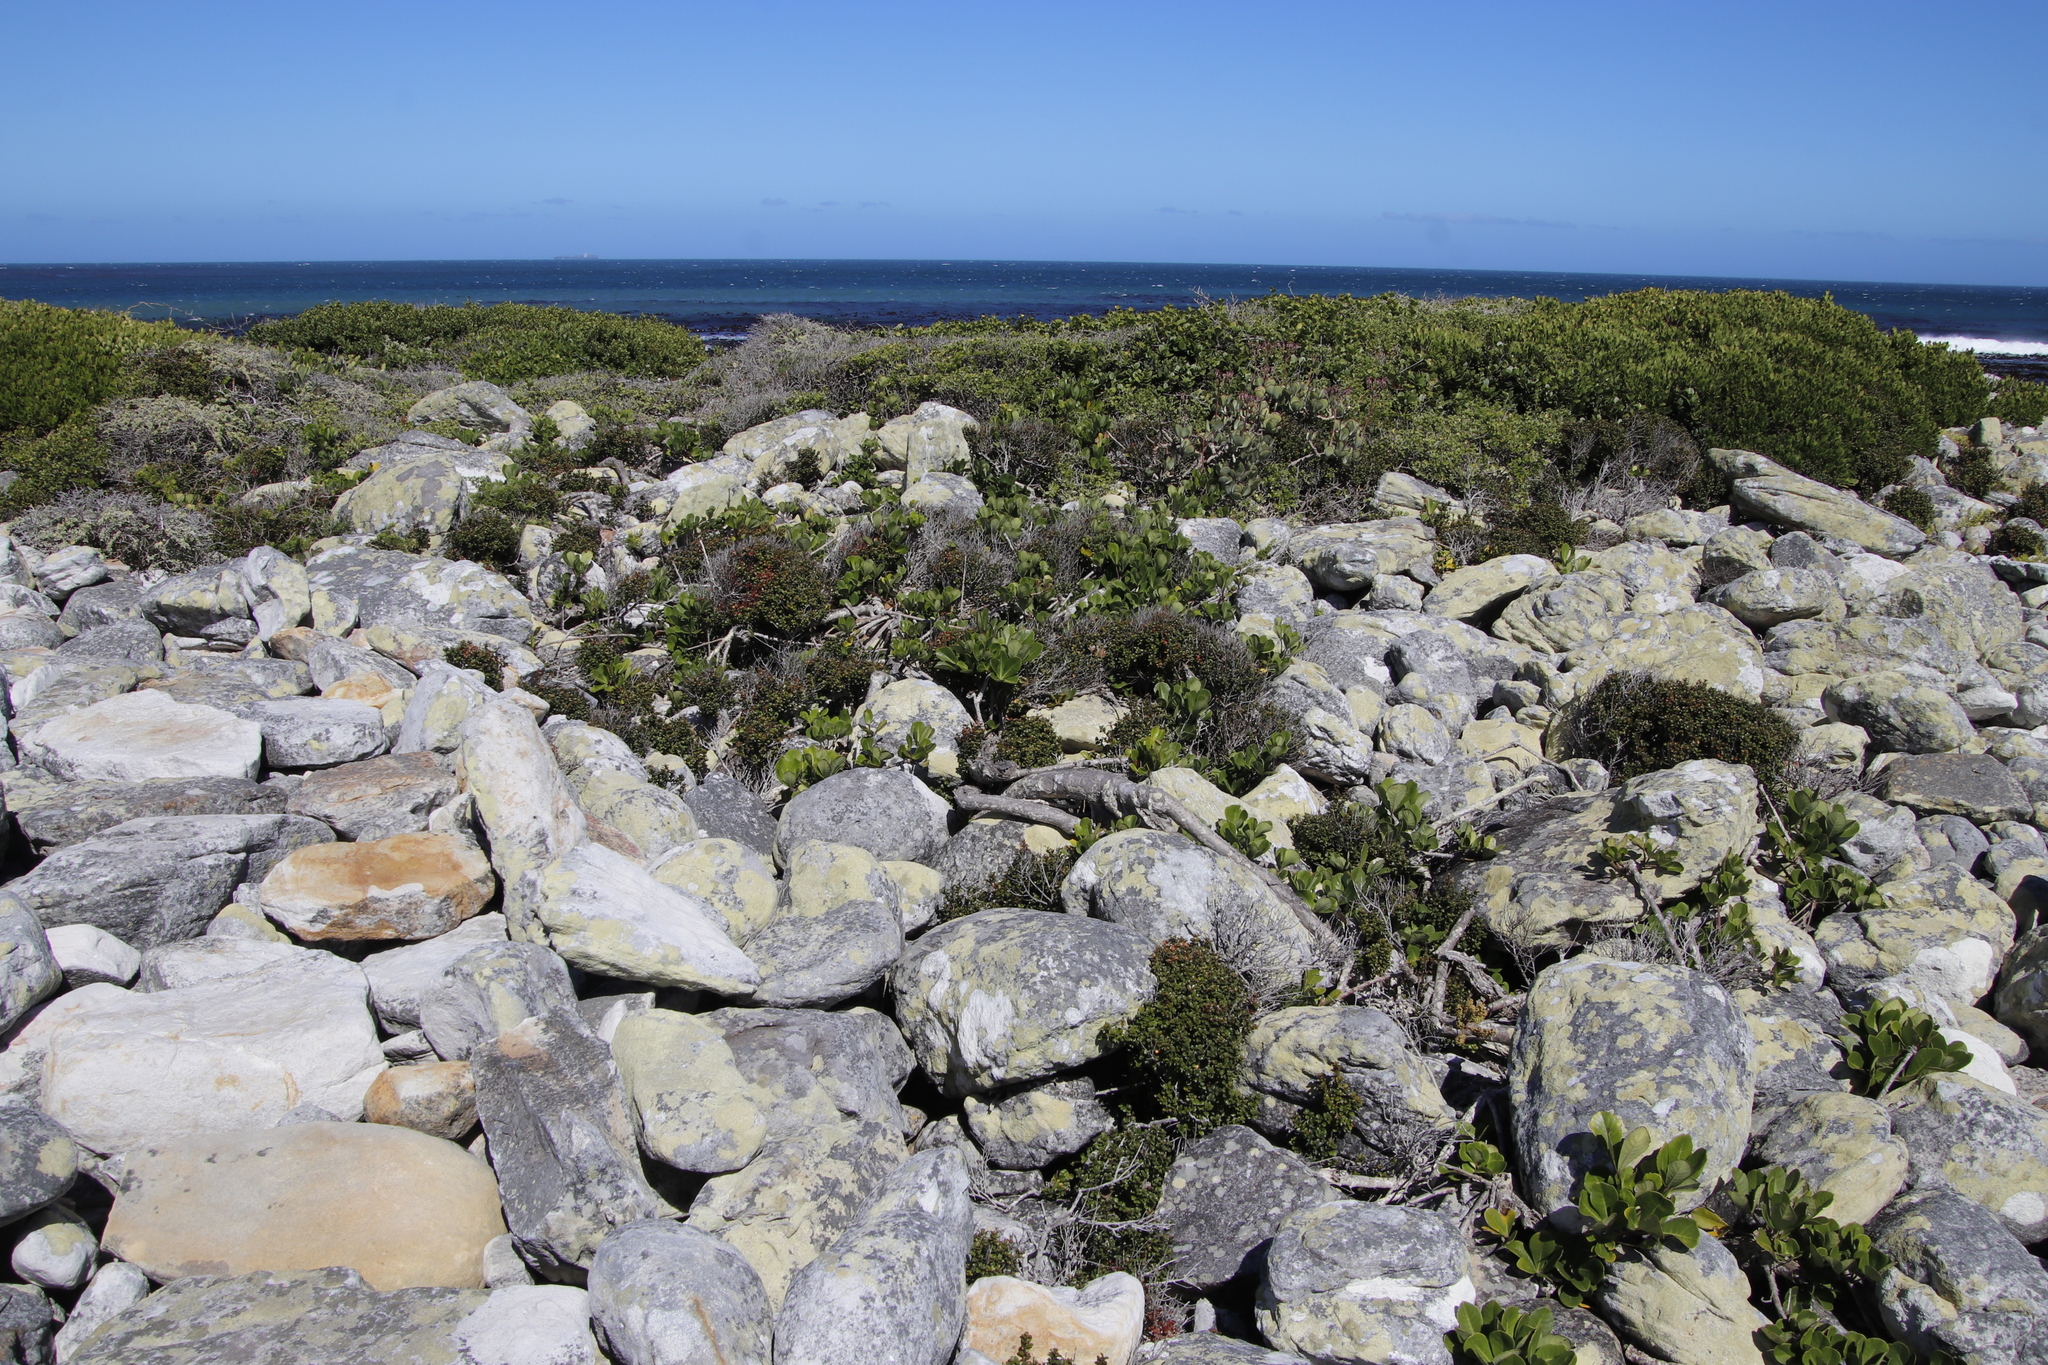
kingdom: Plantae
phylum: Tracheophyta
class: Magnoliopsida
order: Apiales
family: Araliaceae
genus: Cussonia
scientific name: Cussonia thyrsiflora
